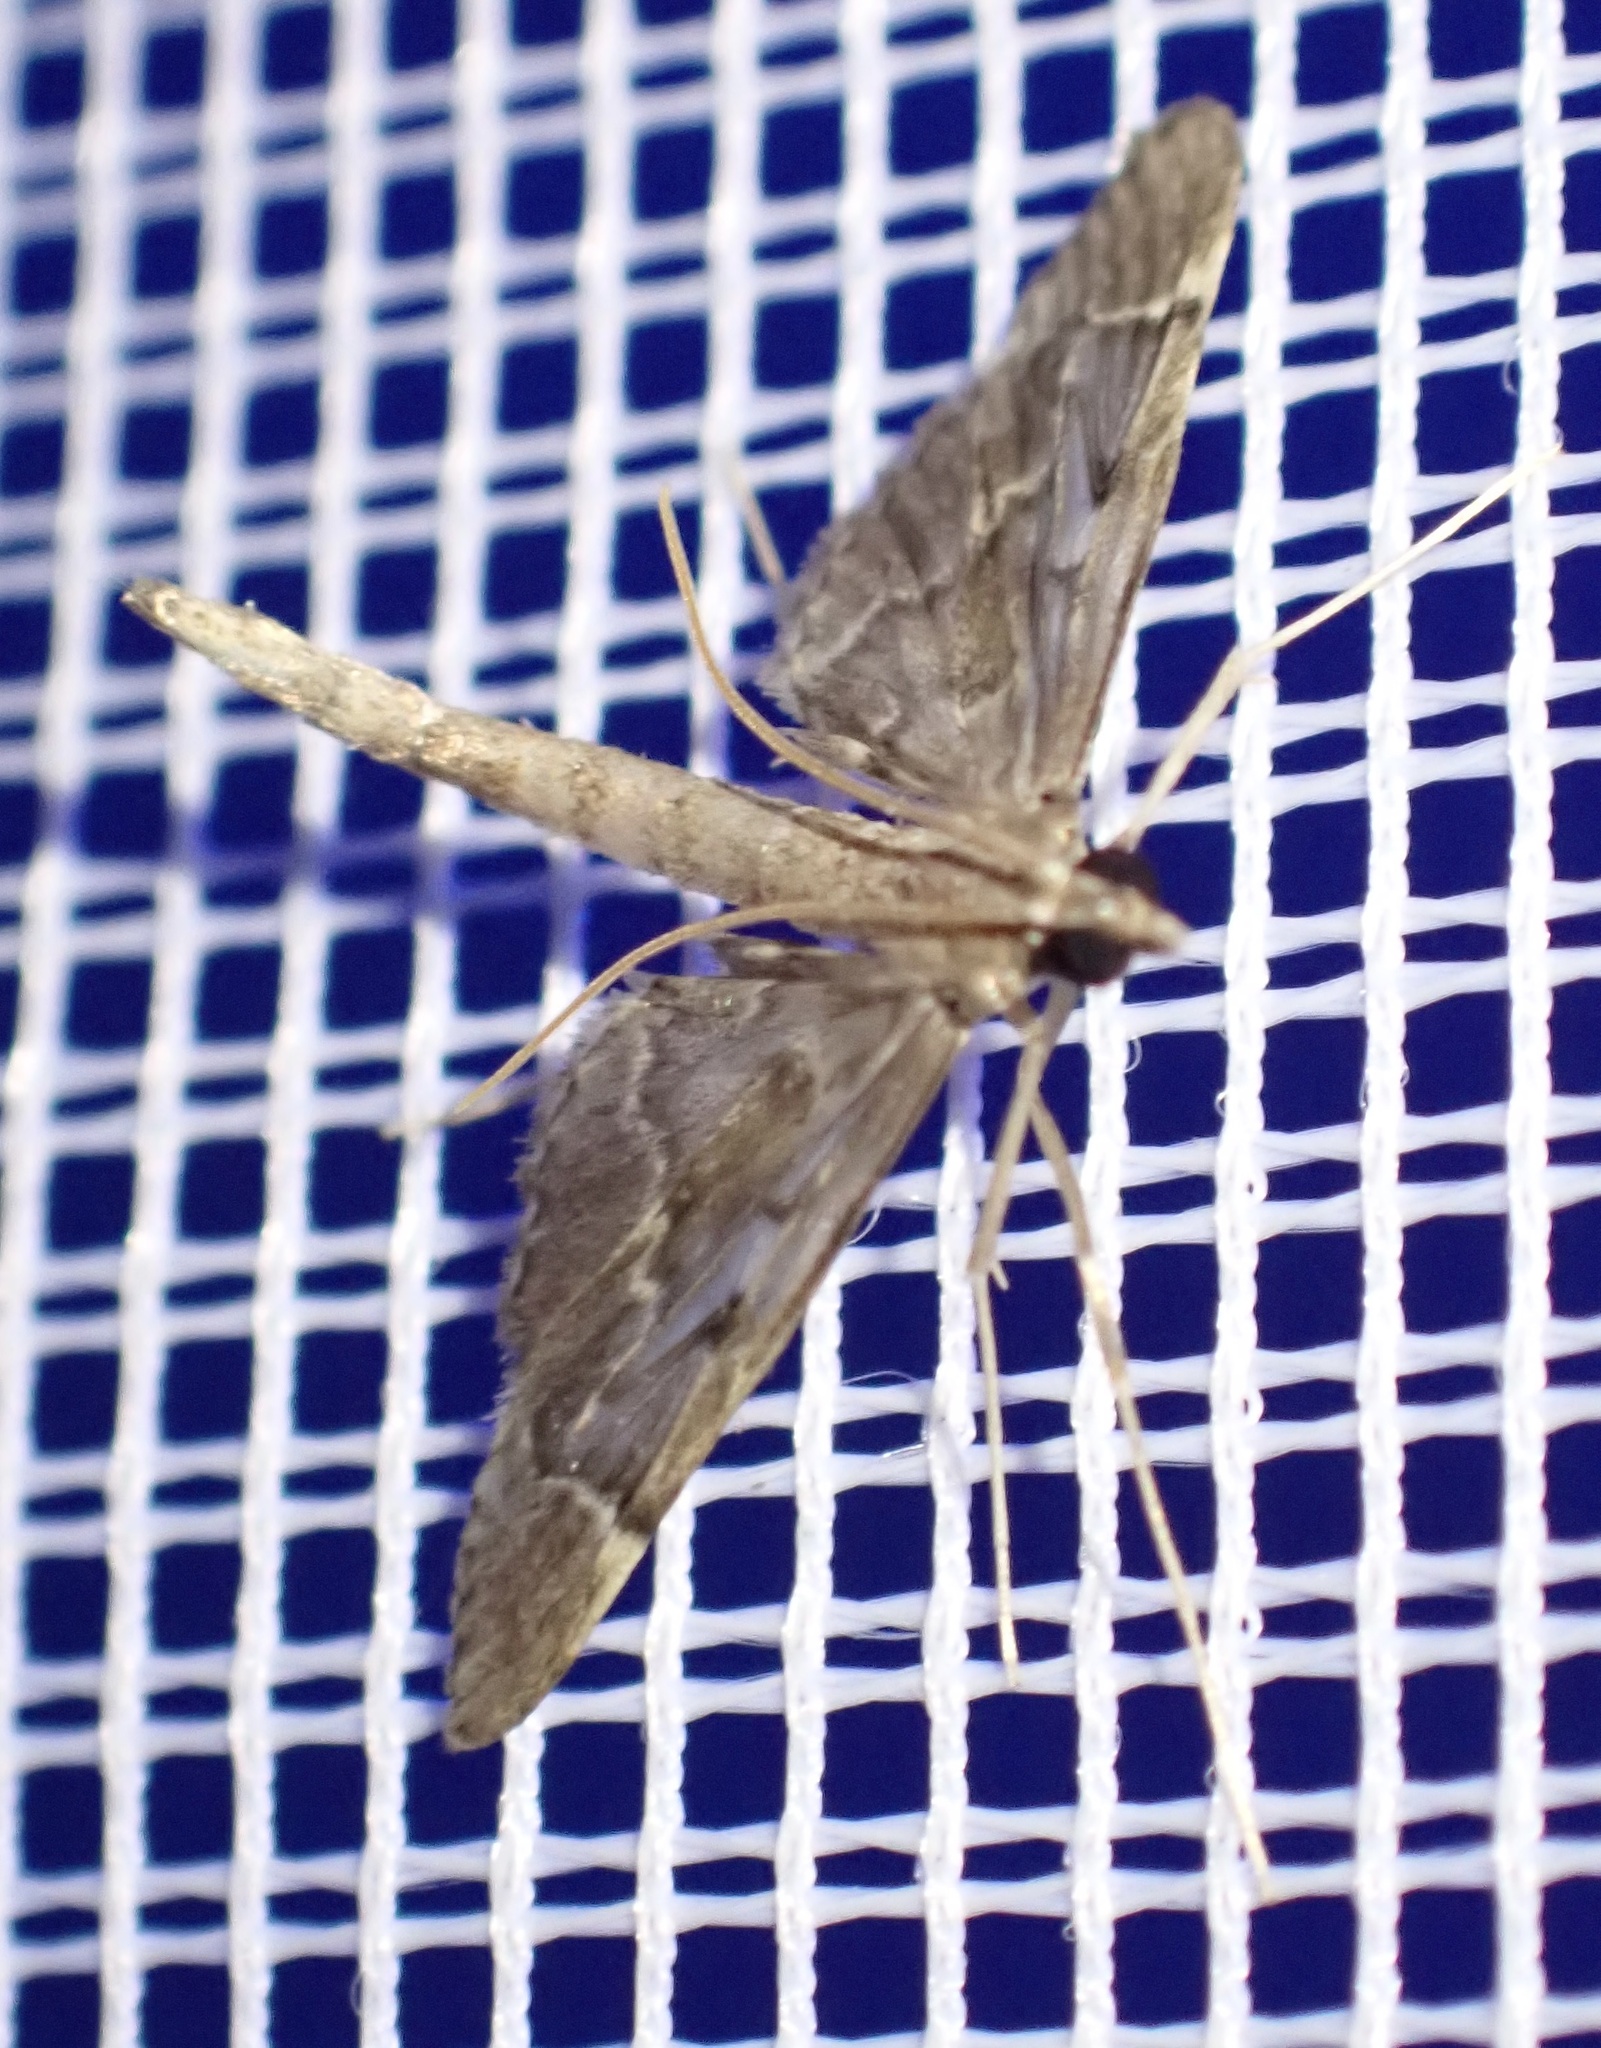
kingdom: Animalia
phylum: Arthropoda
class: Insecta
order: Lepidoptera
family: Crambidae
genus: Duponchelia
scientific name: Duponchelia lanceolalis
